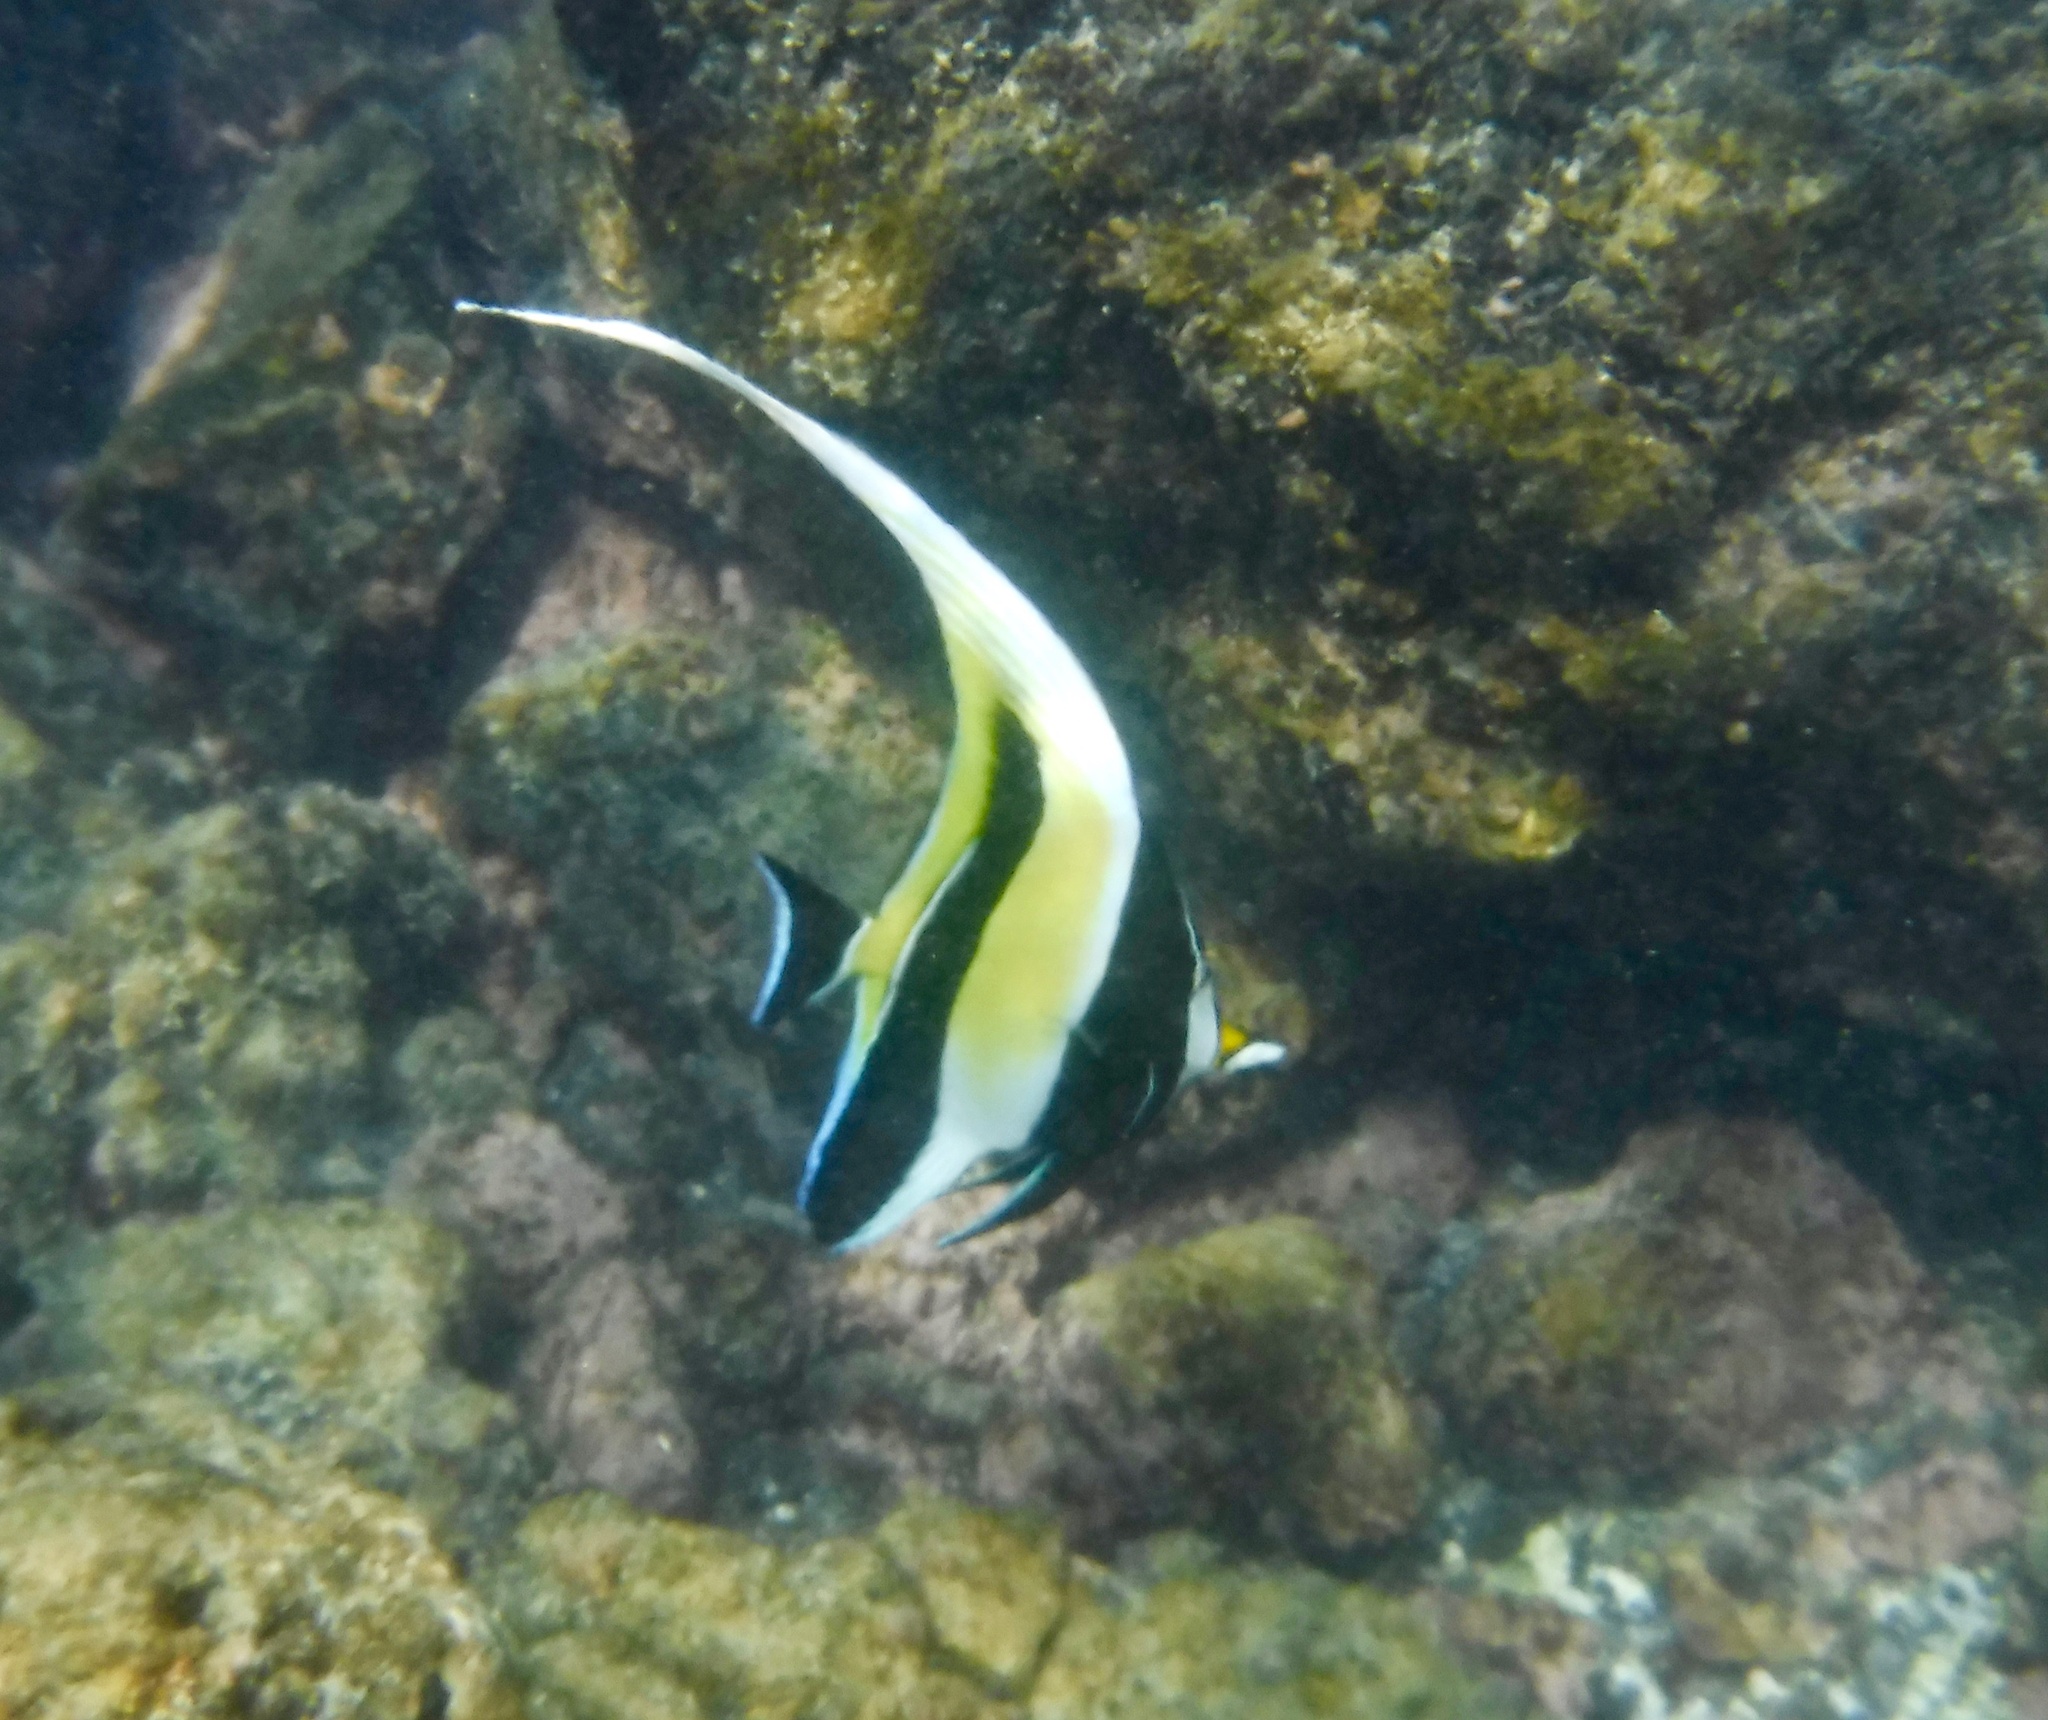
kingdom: Animalia
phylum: Chordata
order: Perciformes
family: Zanclidae
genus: Zanclus
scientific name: Zanclus cornutus
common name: Moorish idol
